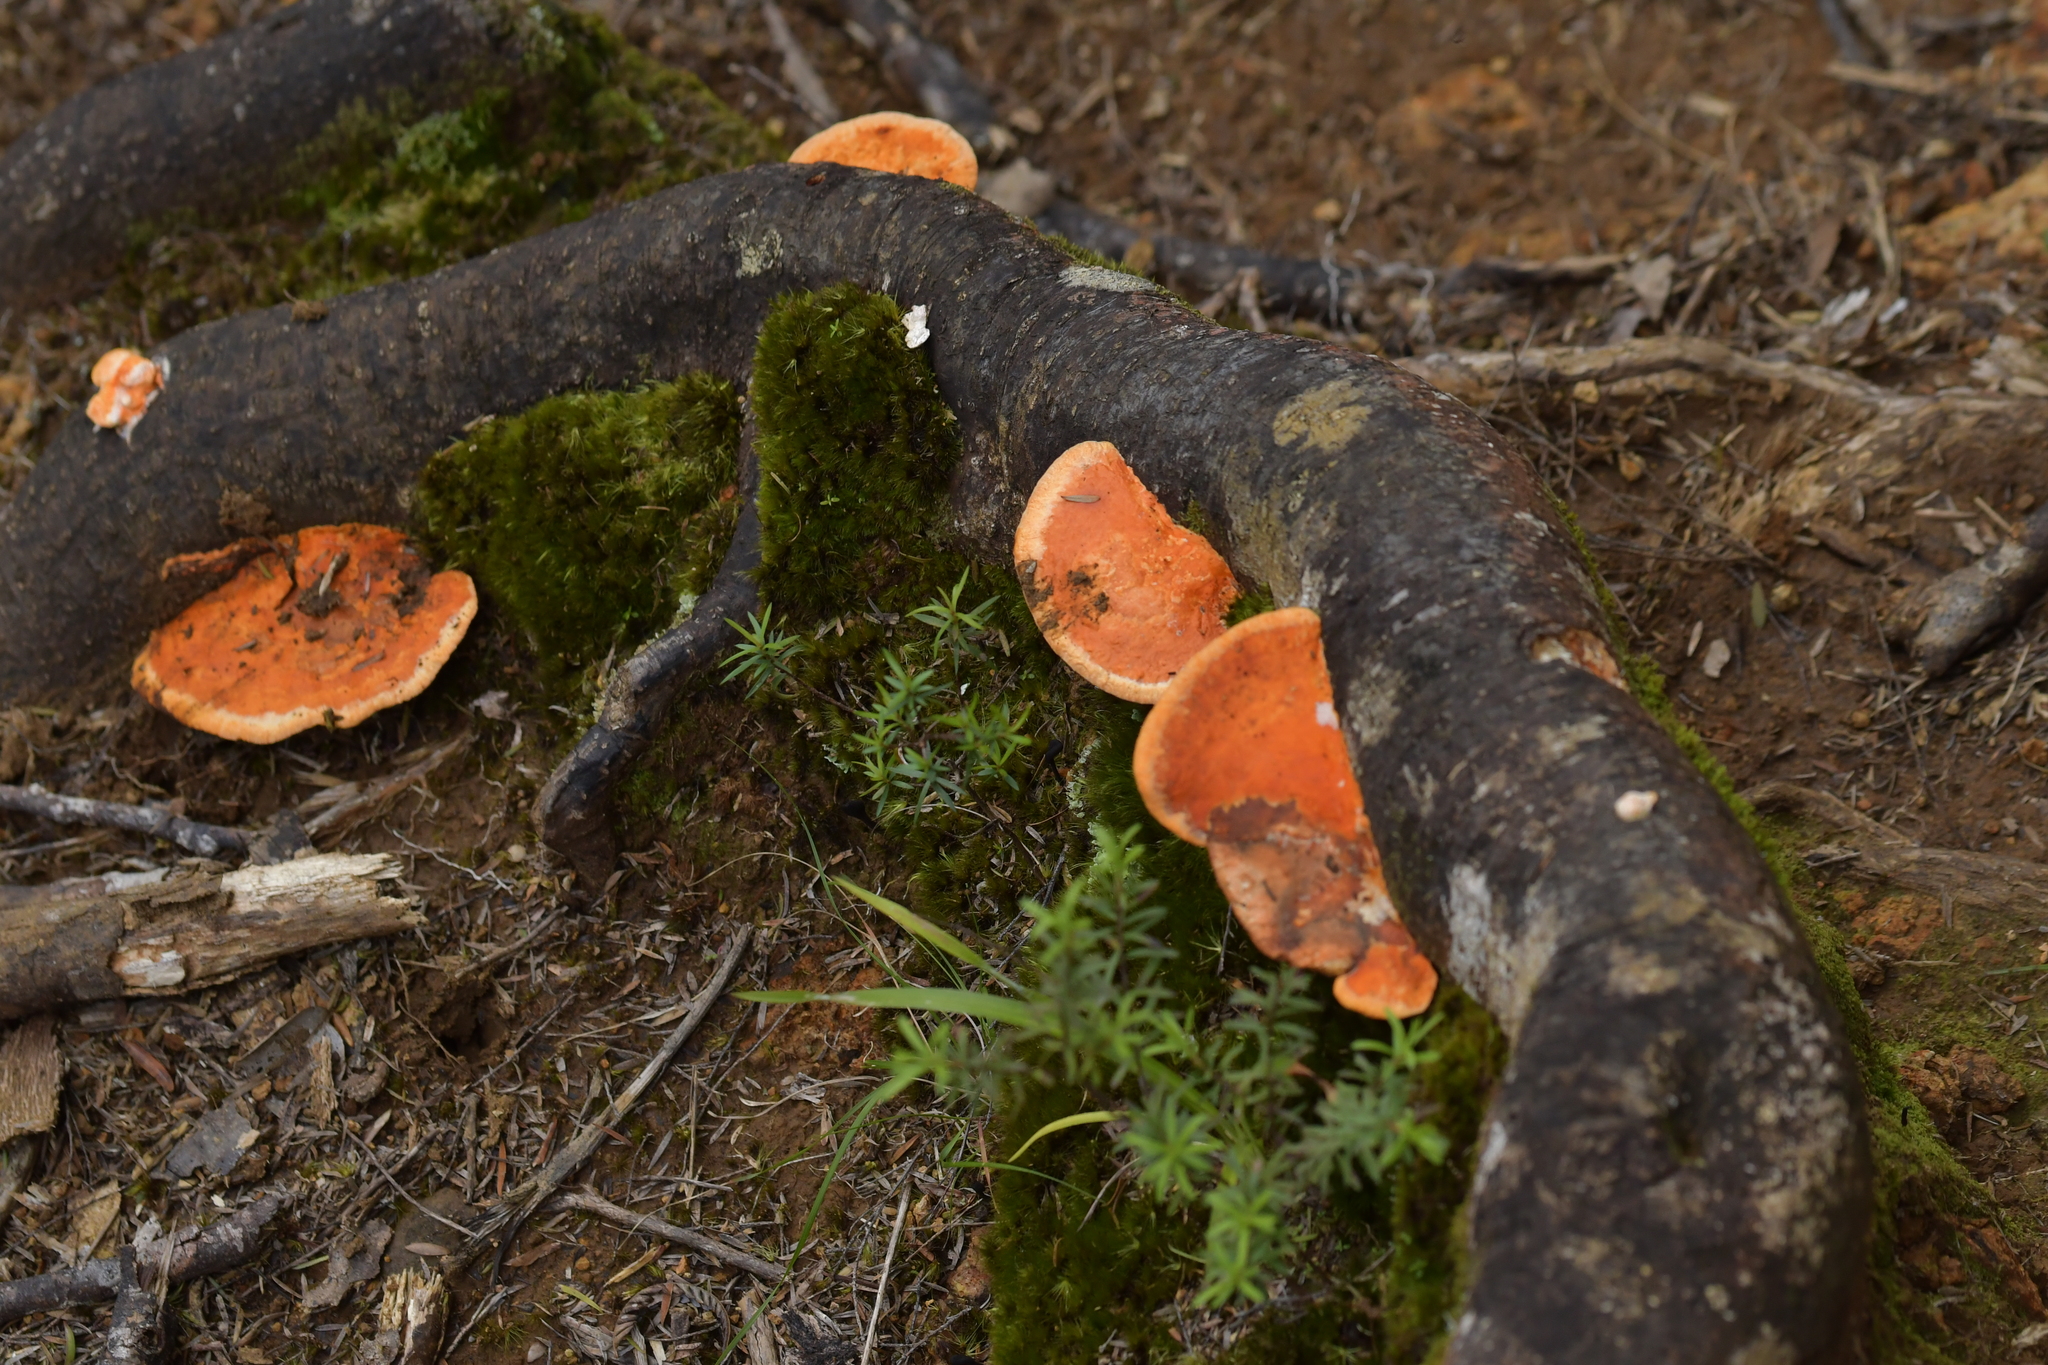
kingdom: Fungi
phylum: Basidiomycota
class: Agaricomycetes
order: Polyporales
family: Polyporaceae
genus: Trametes
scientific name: Trametes coccinea
